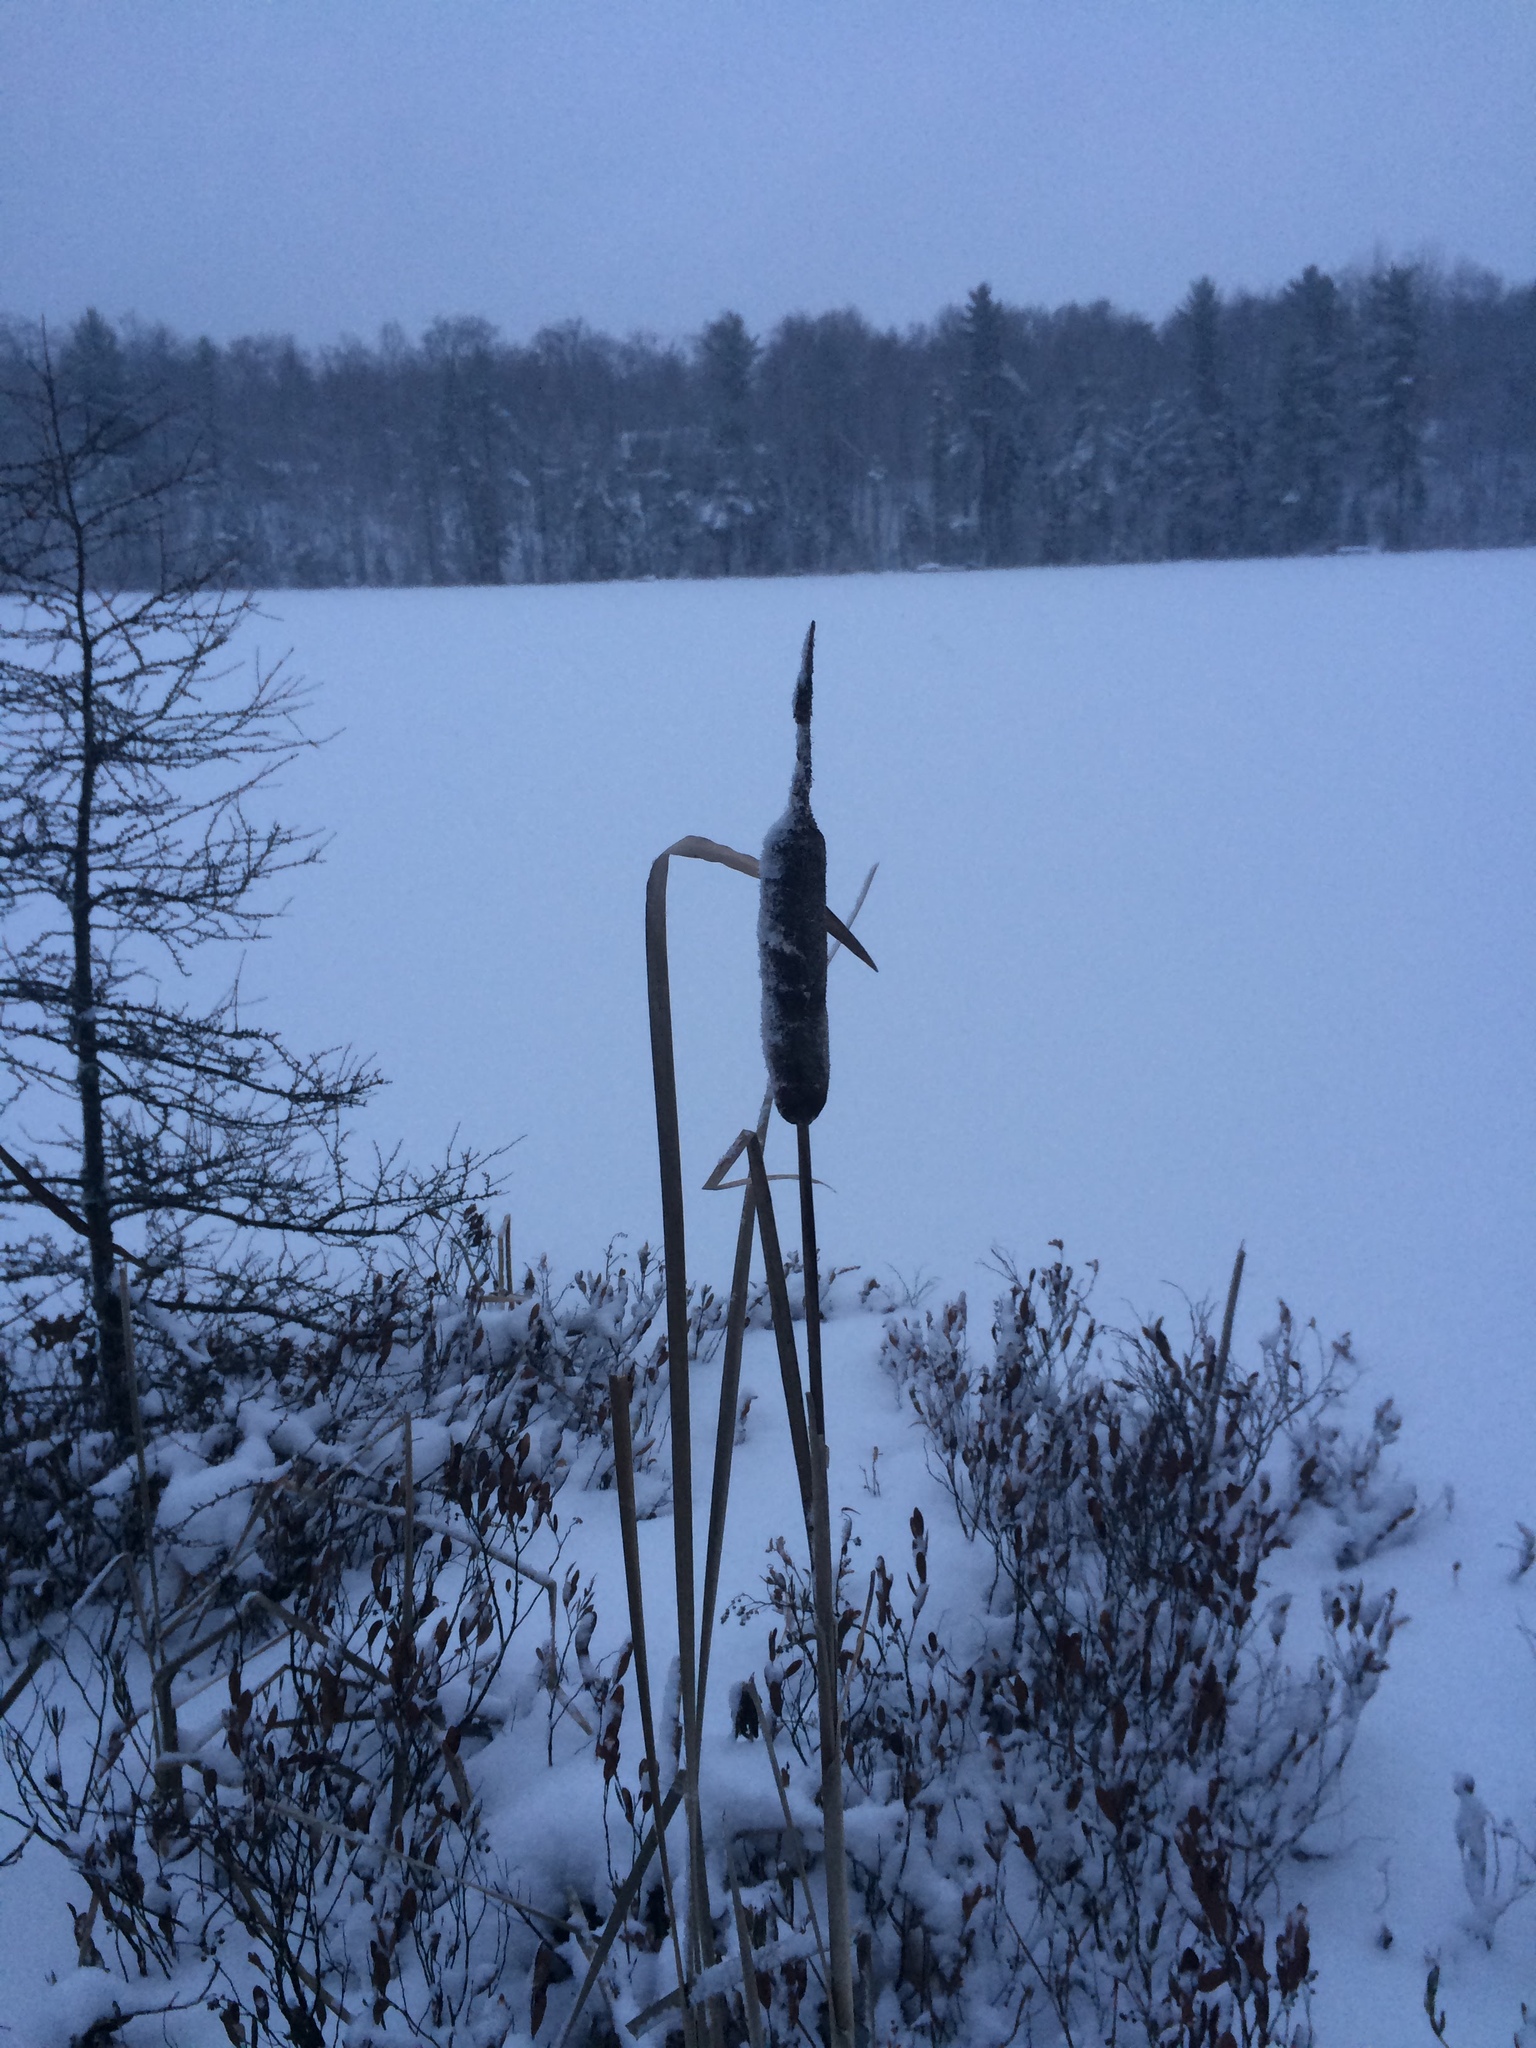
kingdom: Plantae
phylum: Tracheophyta
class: Liliopsida
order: Poales
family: Typhaceae
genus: Typha
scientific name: Typha latifolia
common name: Broadleaf cattail
